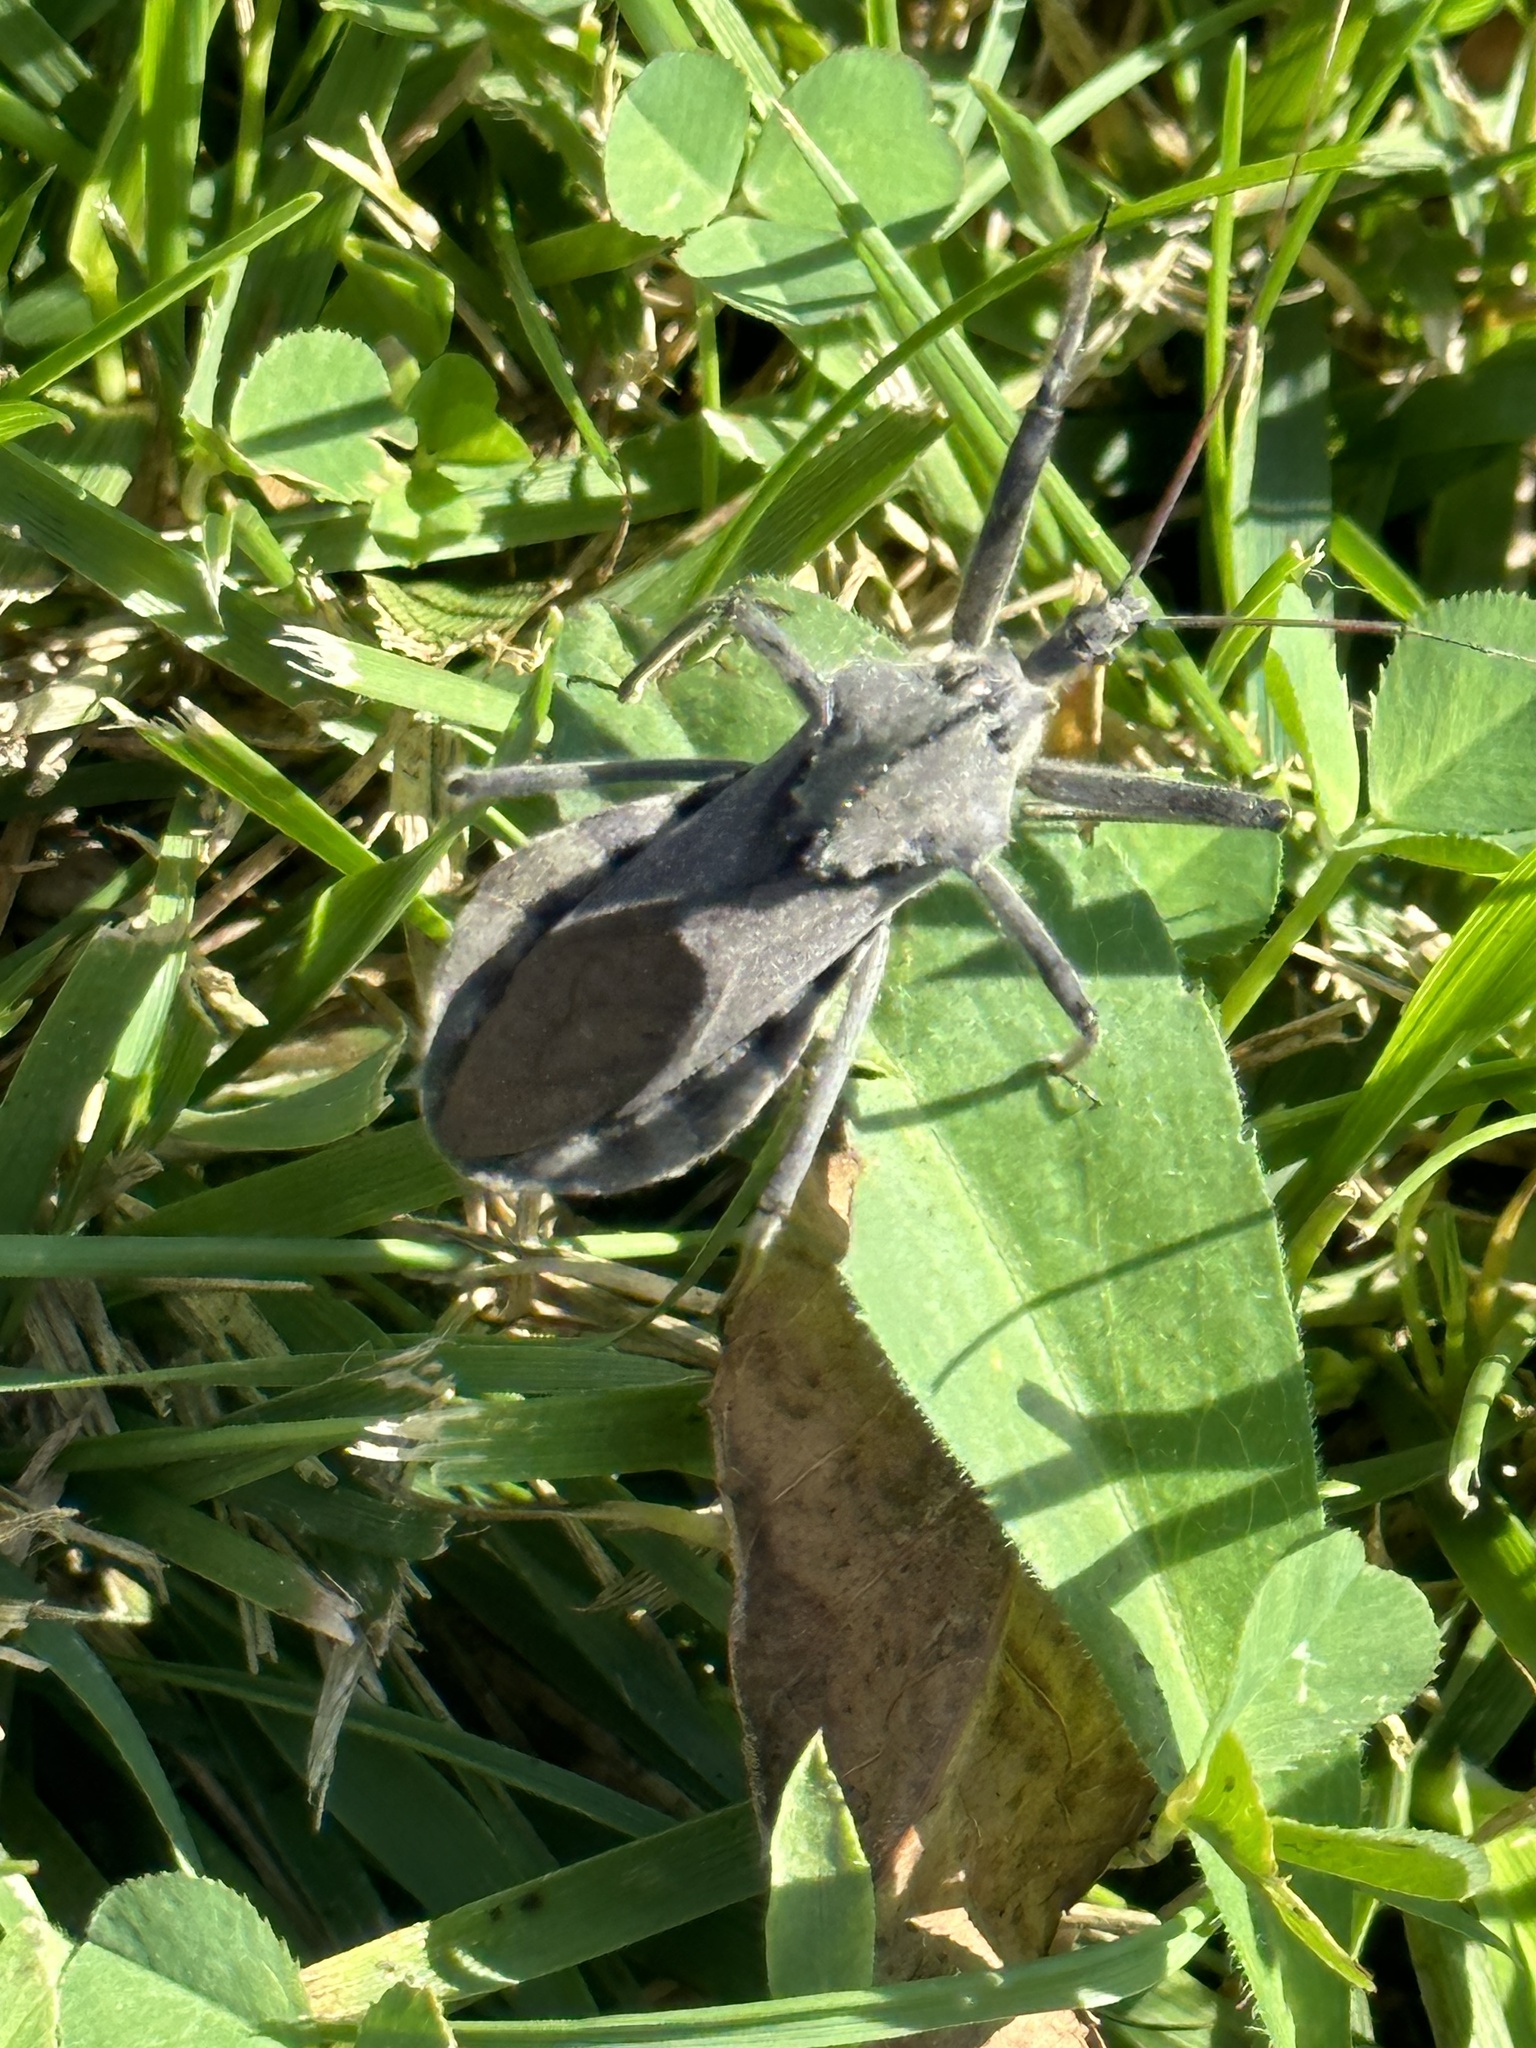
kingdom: Animalia
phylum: Arthropoda
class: Insecta
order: Hemiptera
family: Reduviidae
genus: Arilus
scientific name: Arilus cristatus
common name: North american wheel bug
